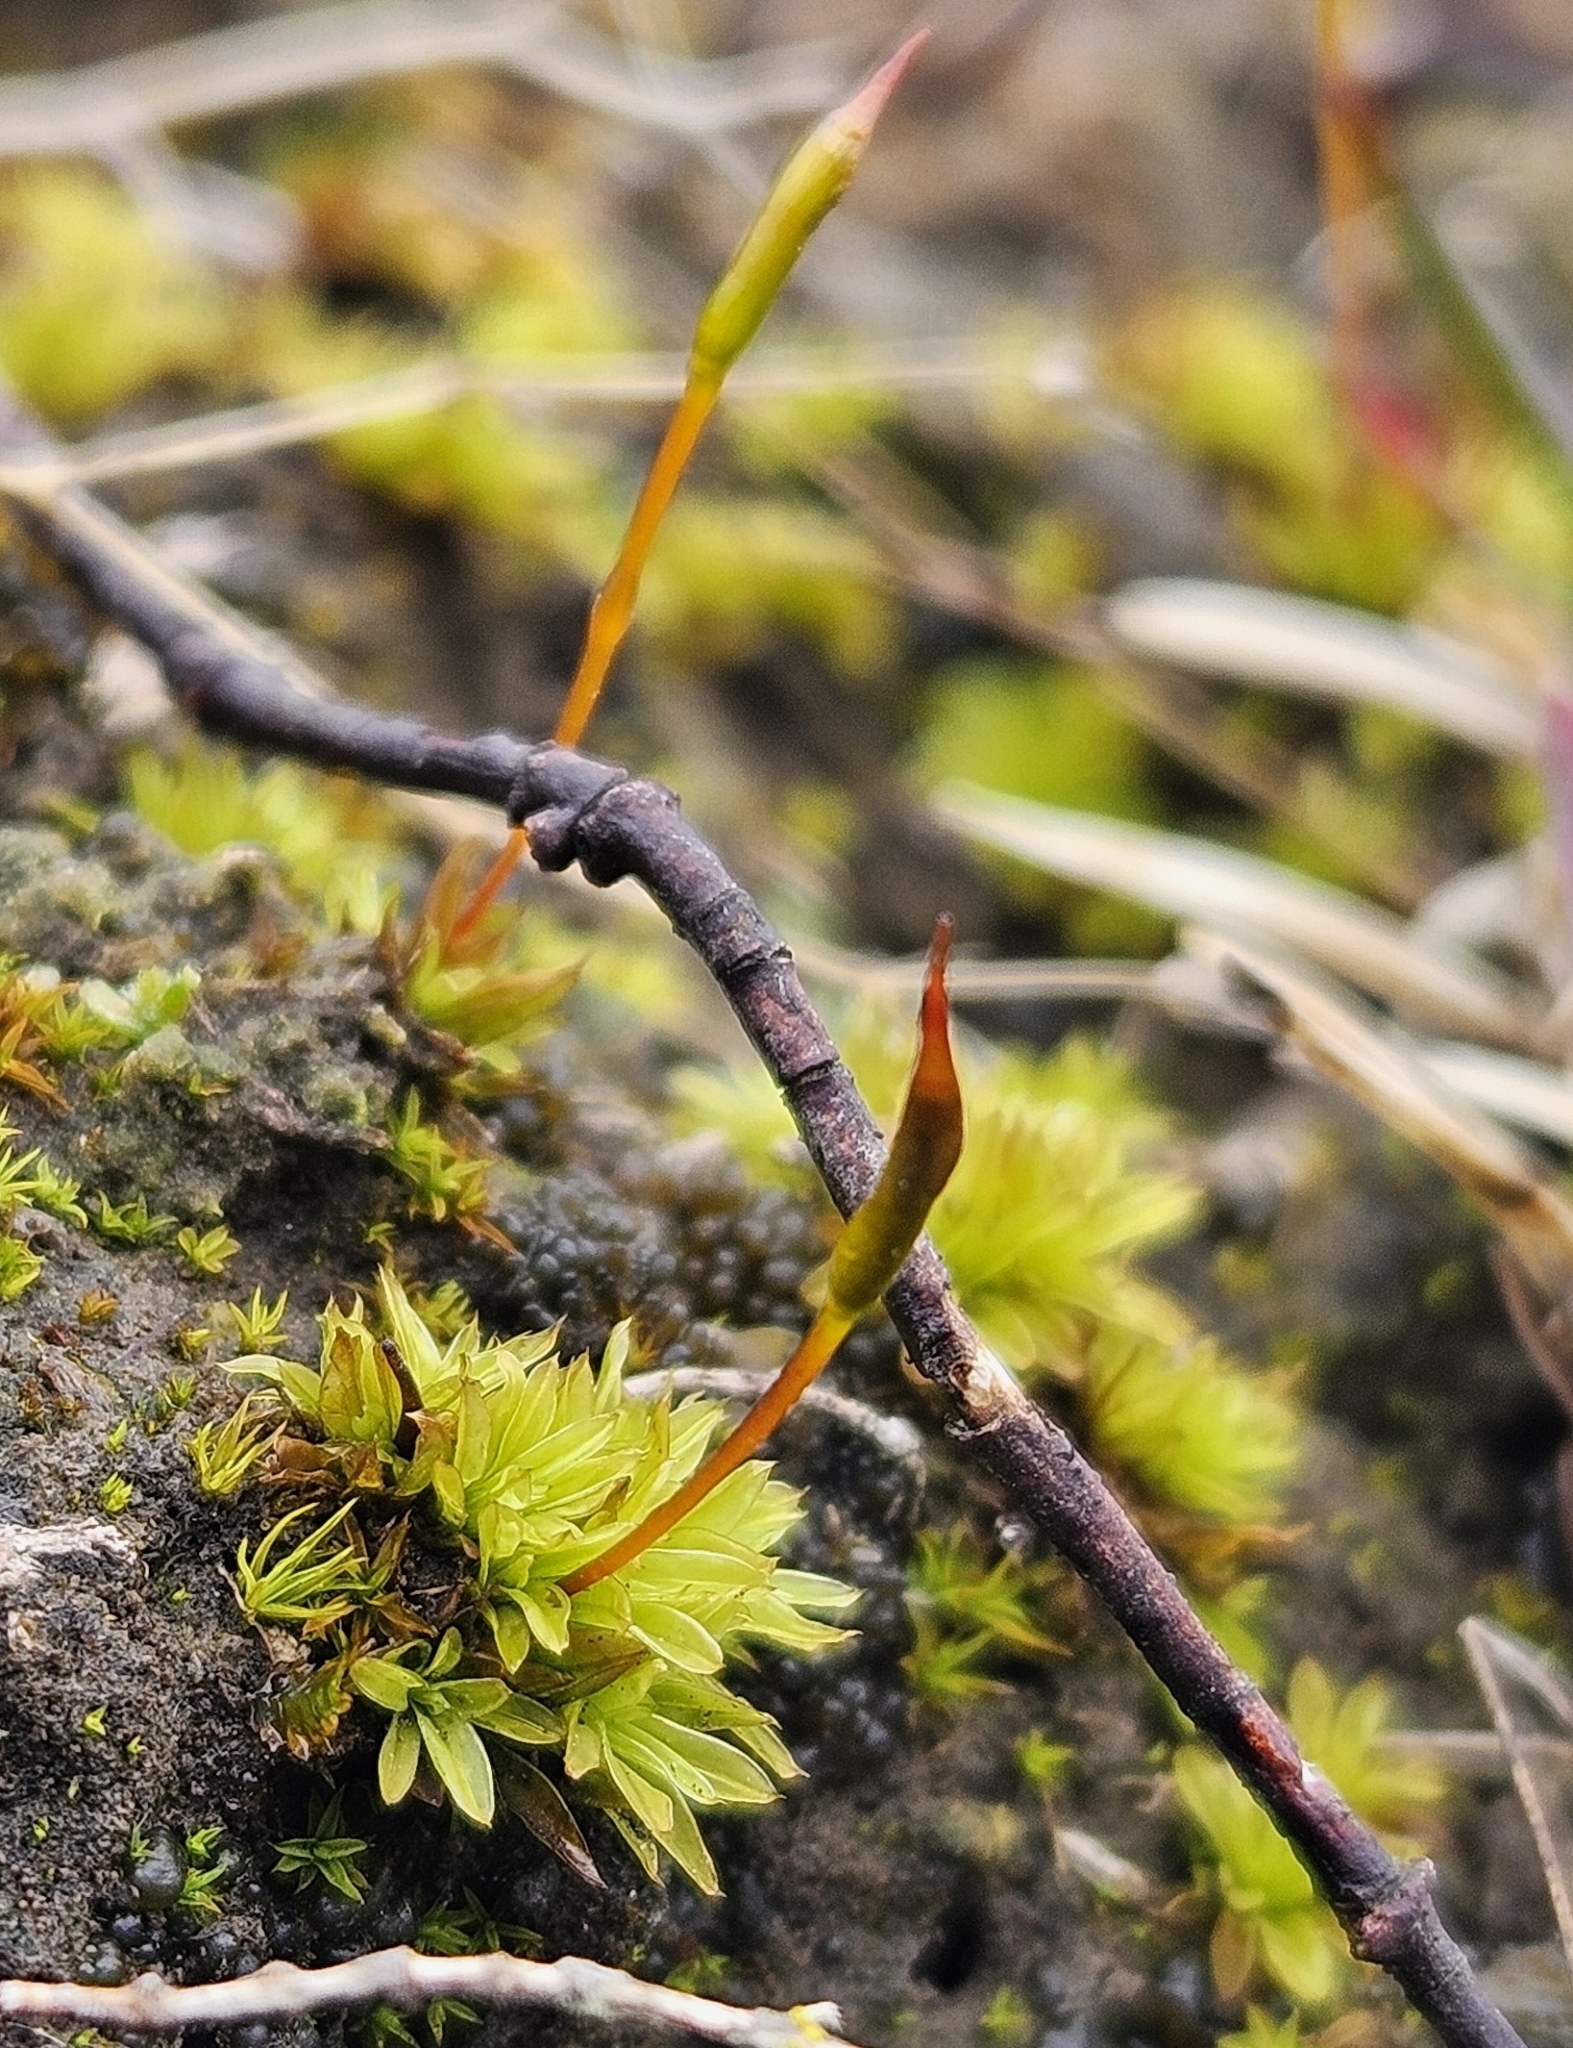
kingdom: Plantae
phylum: Bryophyta
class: Bryopsida
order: Pottiales
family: Pottiaceae
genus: Tortula
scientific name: Tortula subulata
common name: Upright screw-moss
